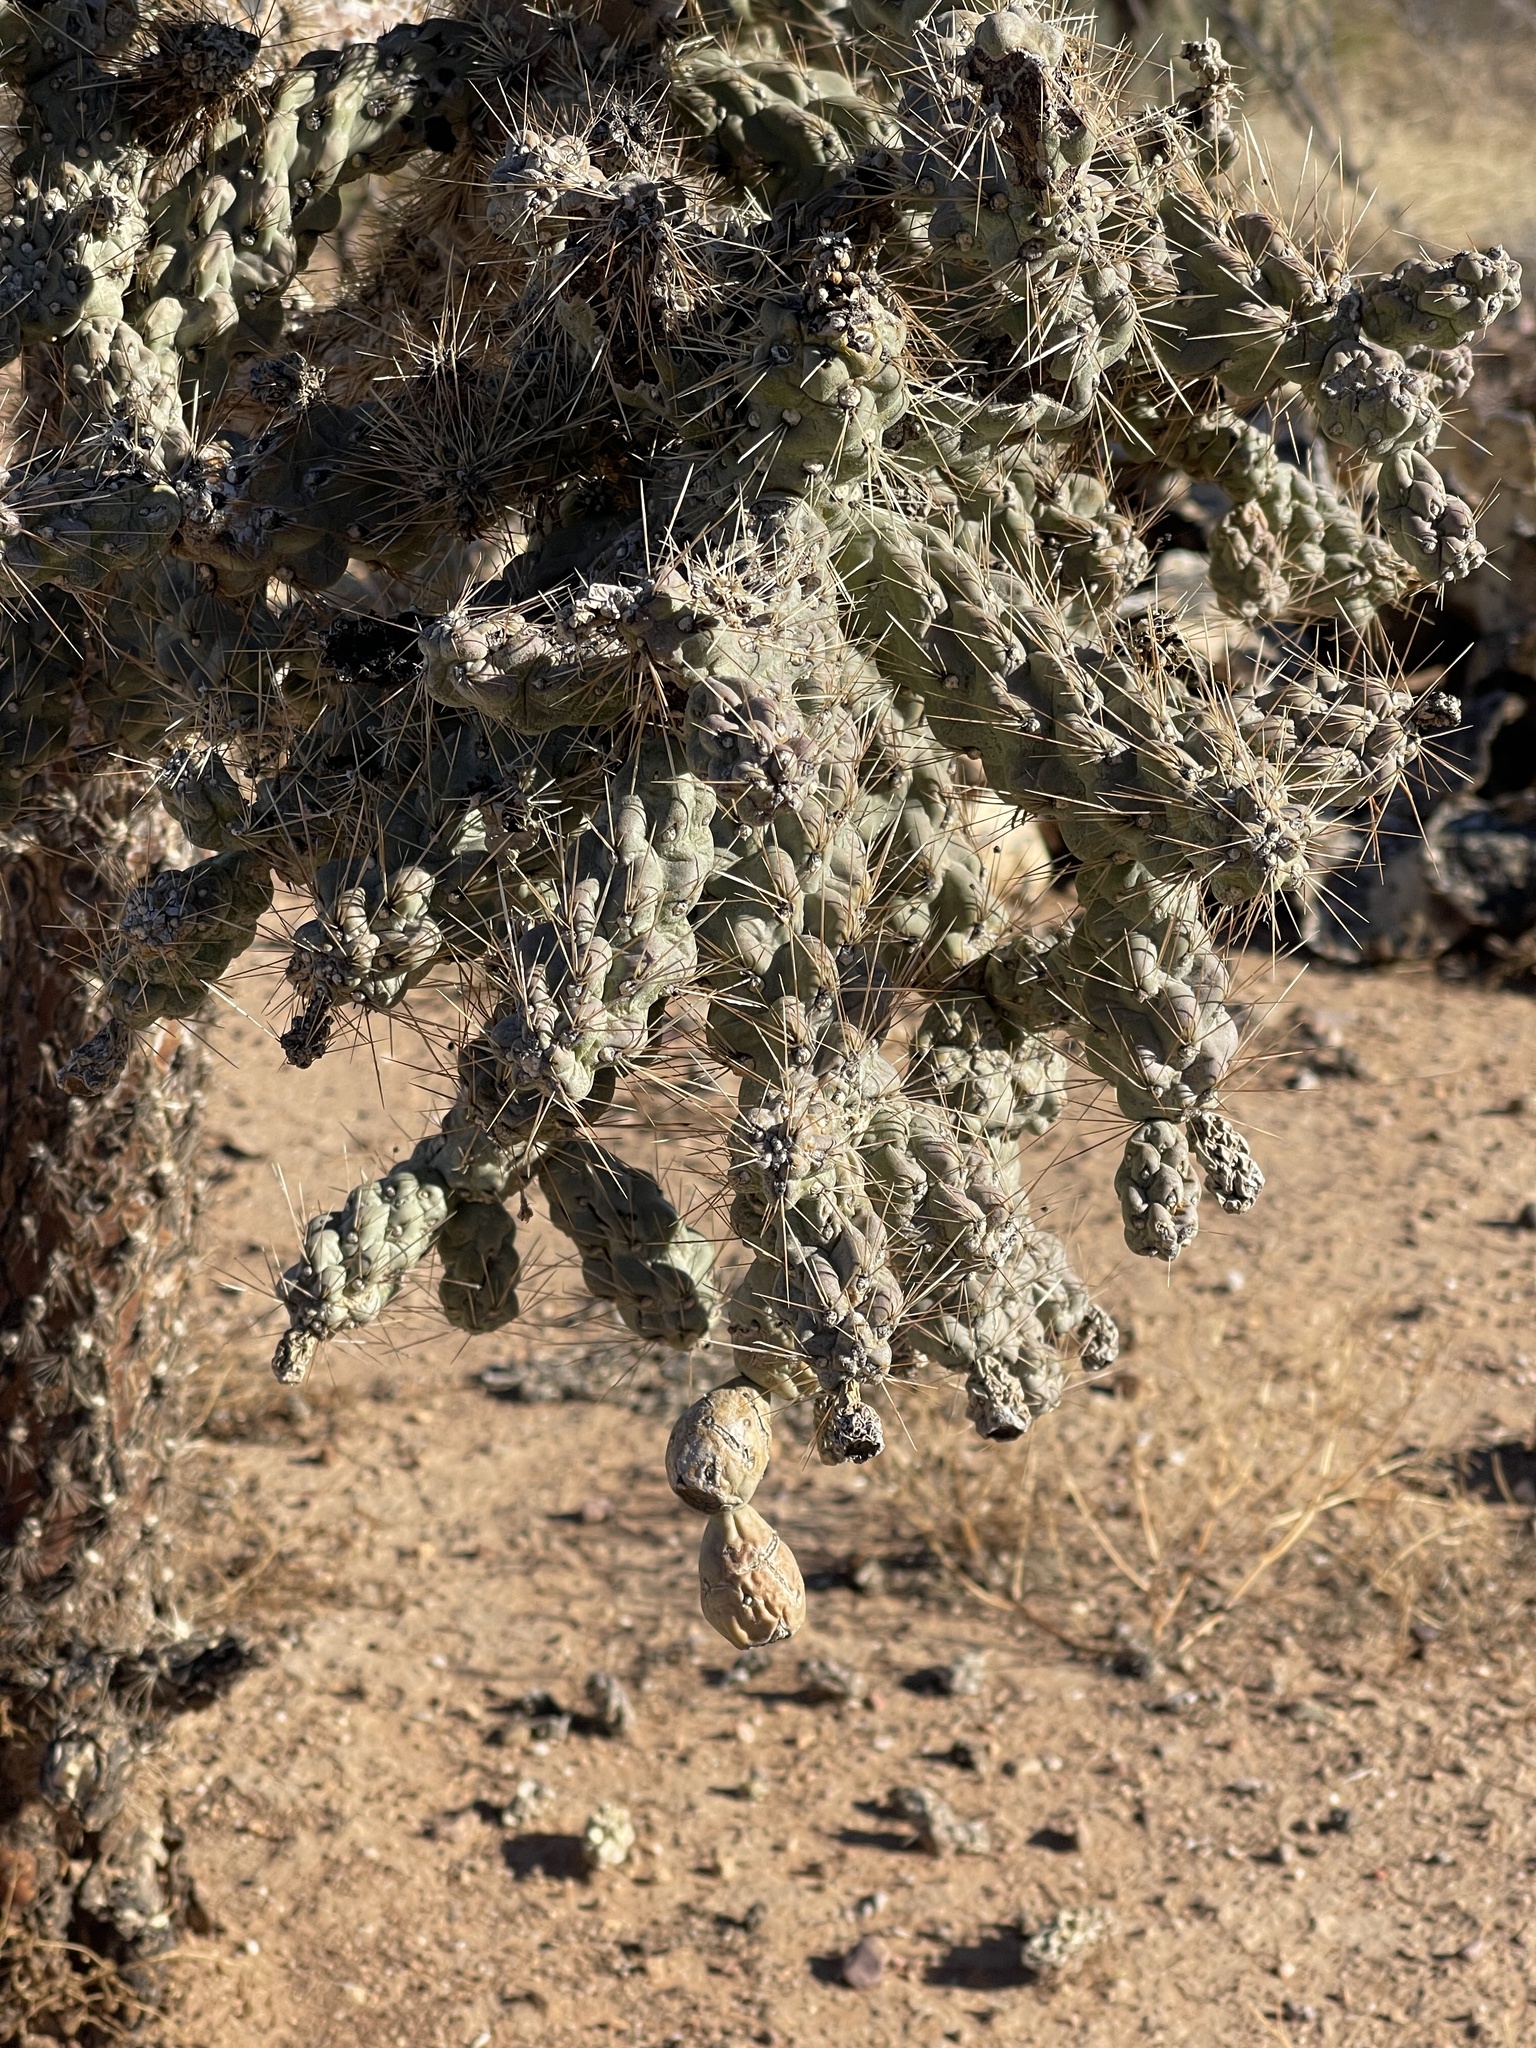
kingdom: Plantae
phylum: Tracheophyta
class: Magnoliopsida
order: Caryophyllales
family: Cactaceae
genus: Cylindropuntia
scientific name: Cylindropuntia fulgida
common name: Jumping cholla
